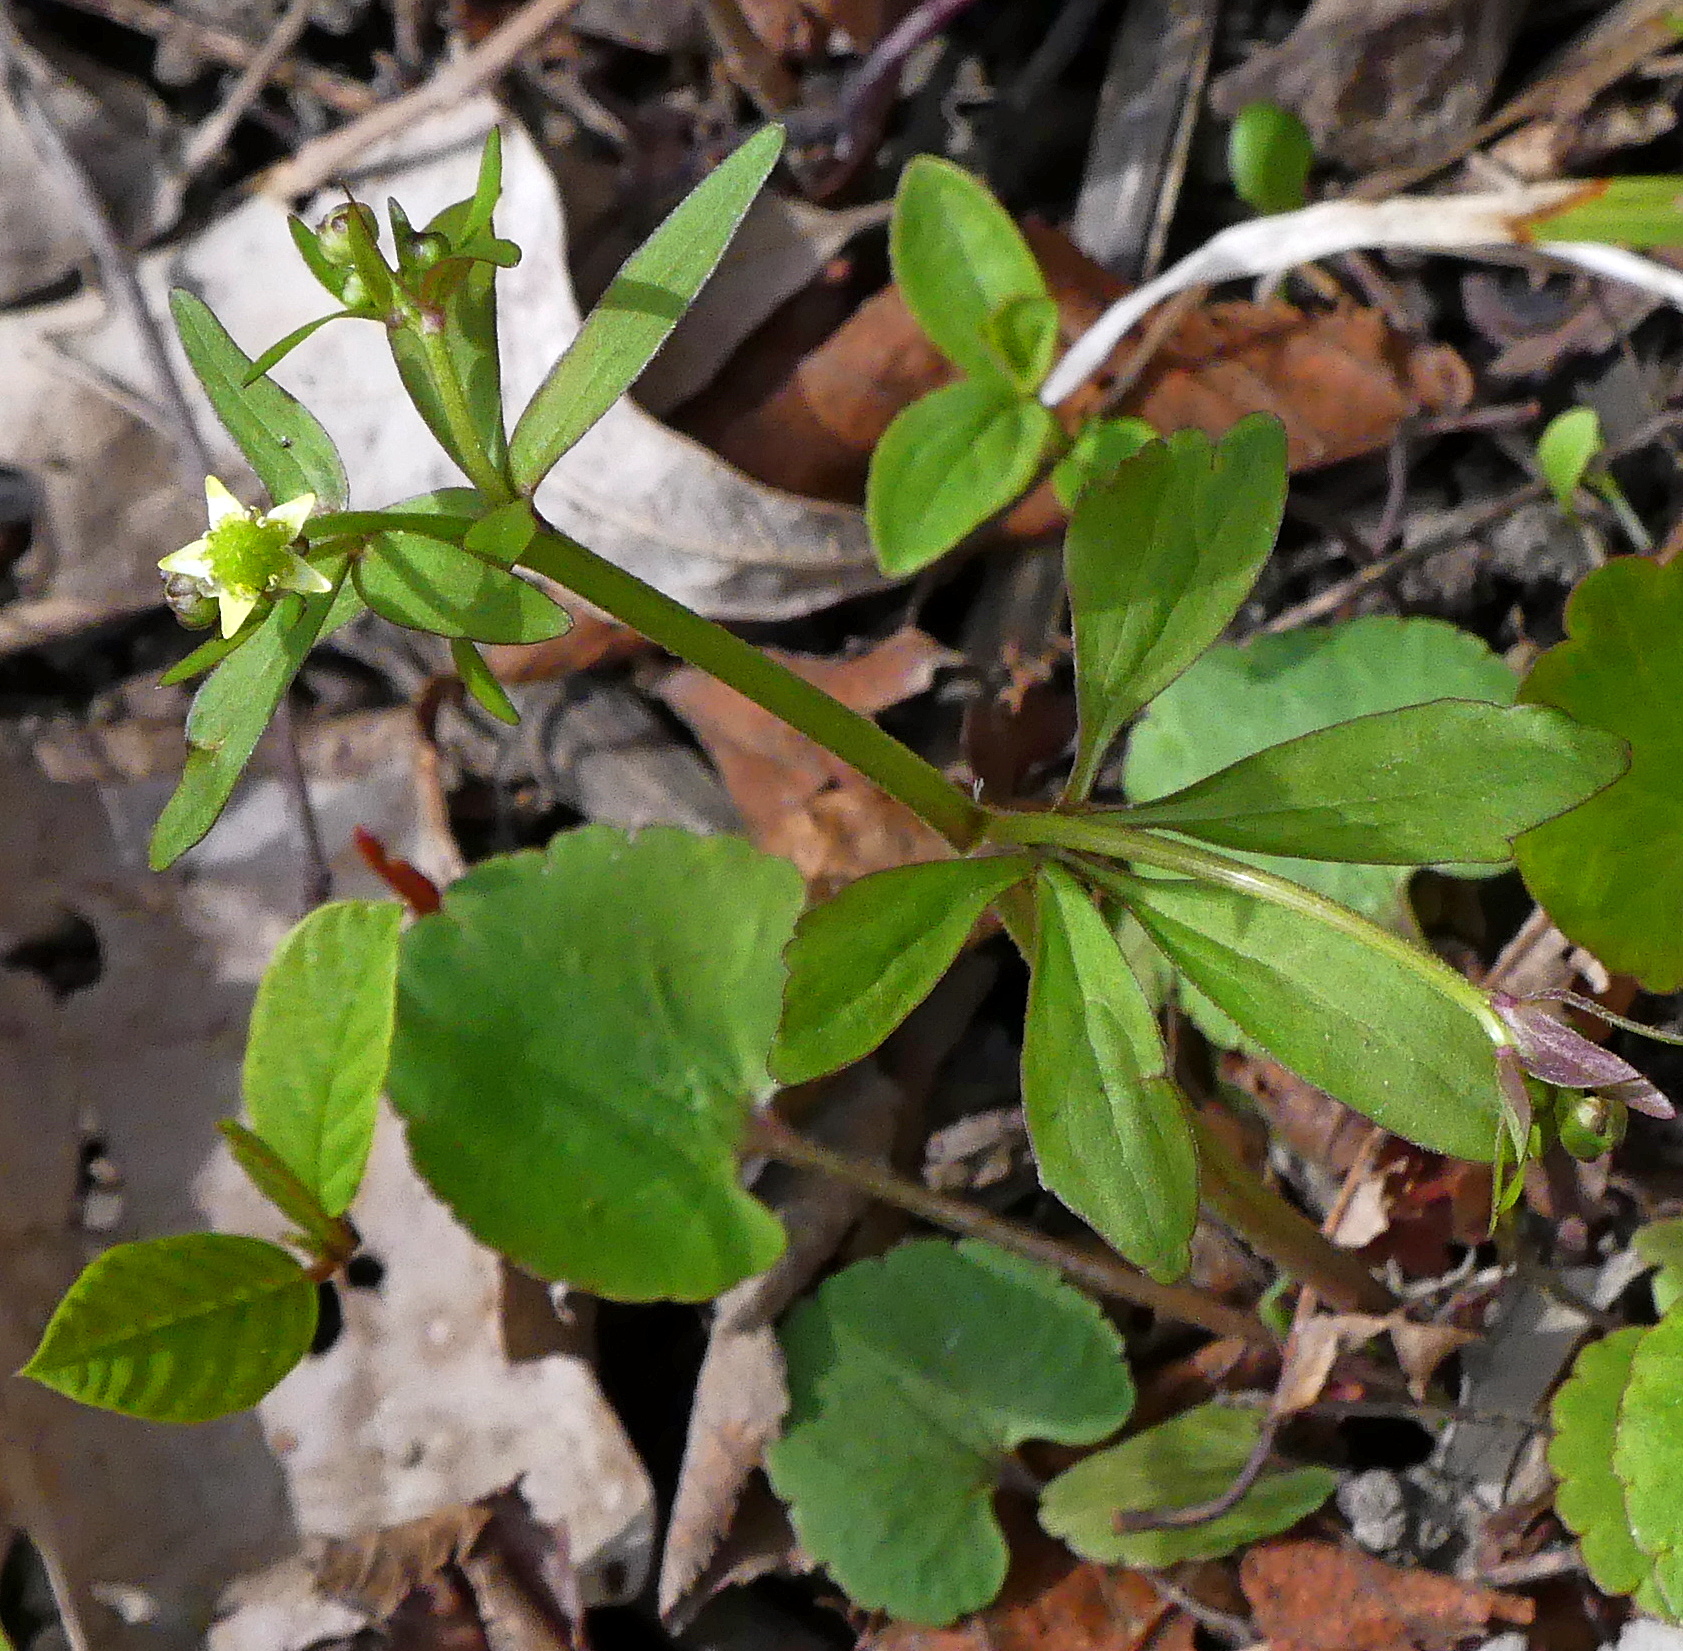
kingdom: Plantae
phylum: Tracheophyta
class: Magnoliopsida
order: Ranunculales
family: Ranunculaceae
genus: Ranunculus
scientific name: Ranunculus abortivus
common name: Early wood buttercup
